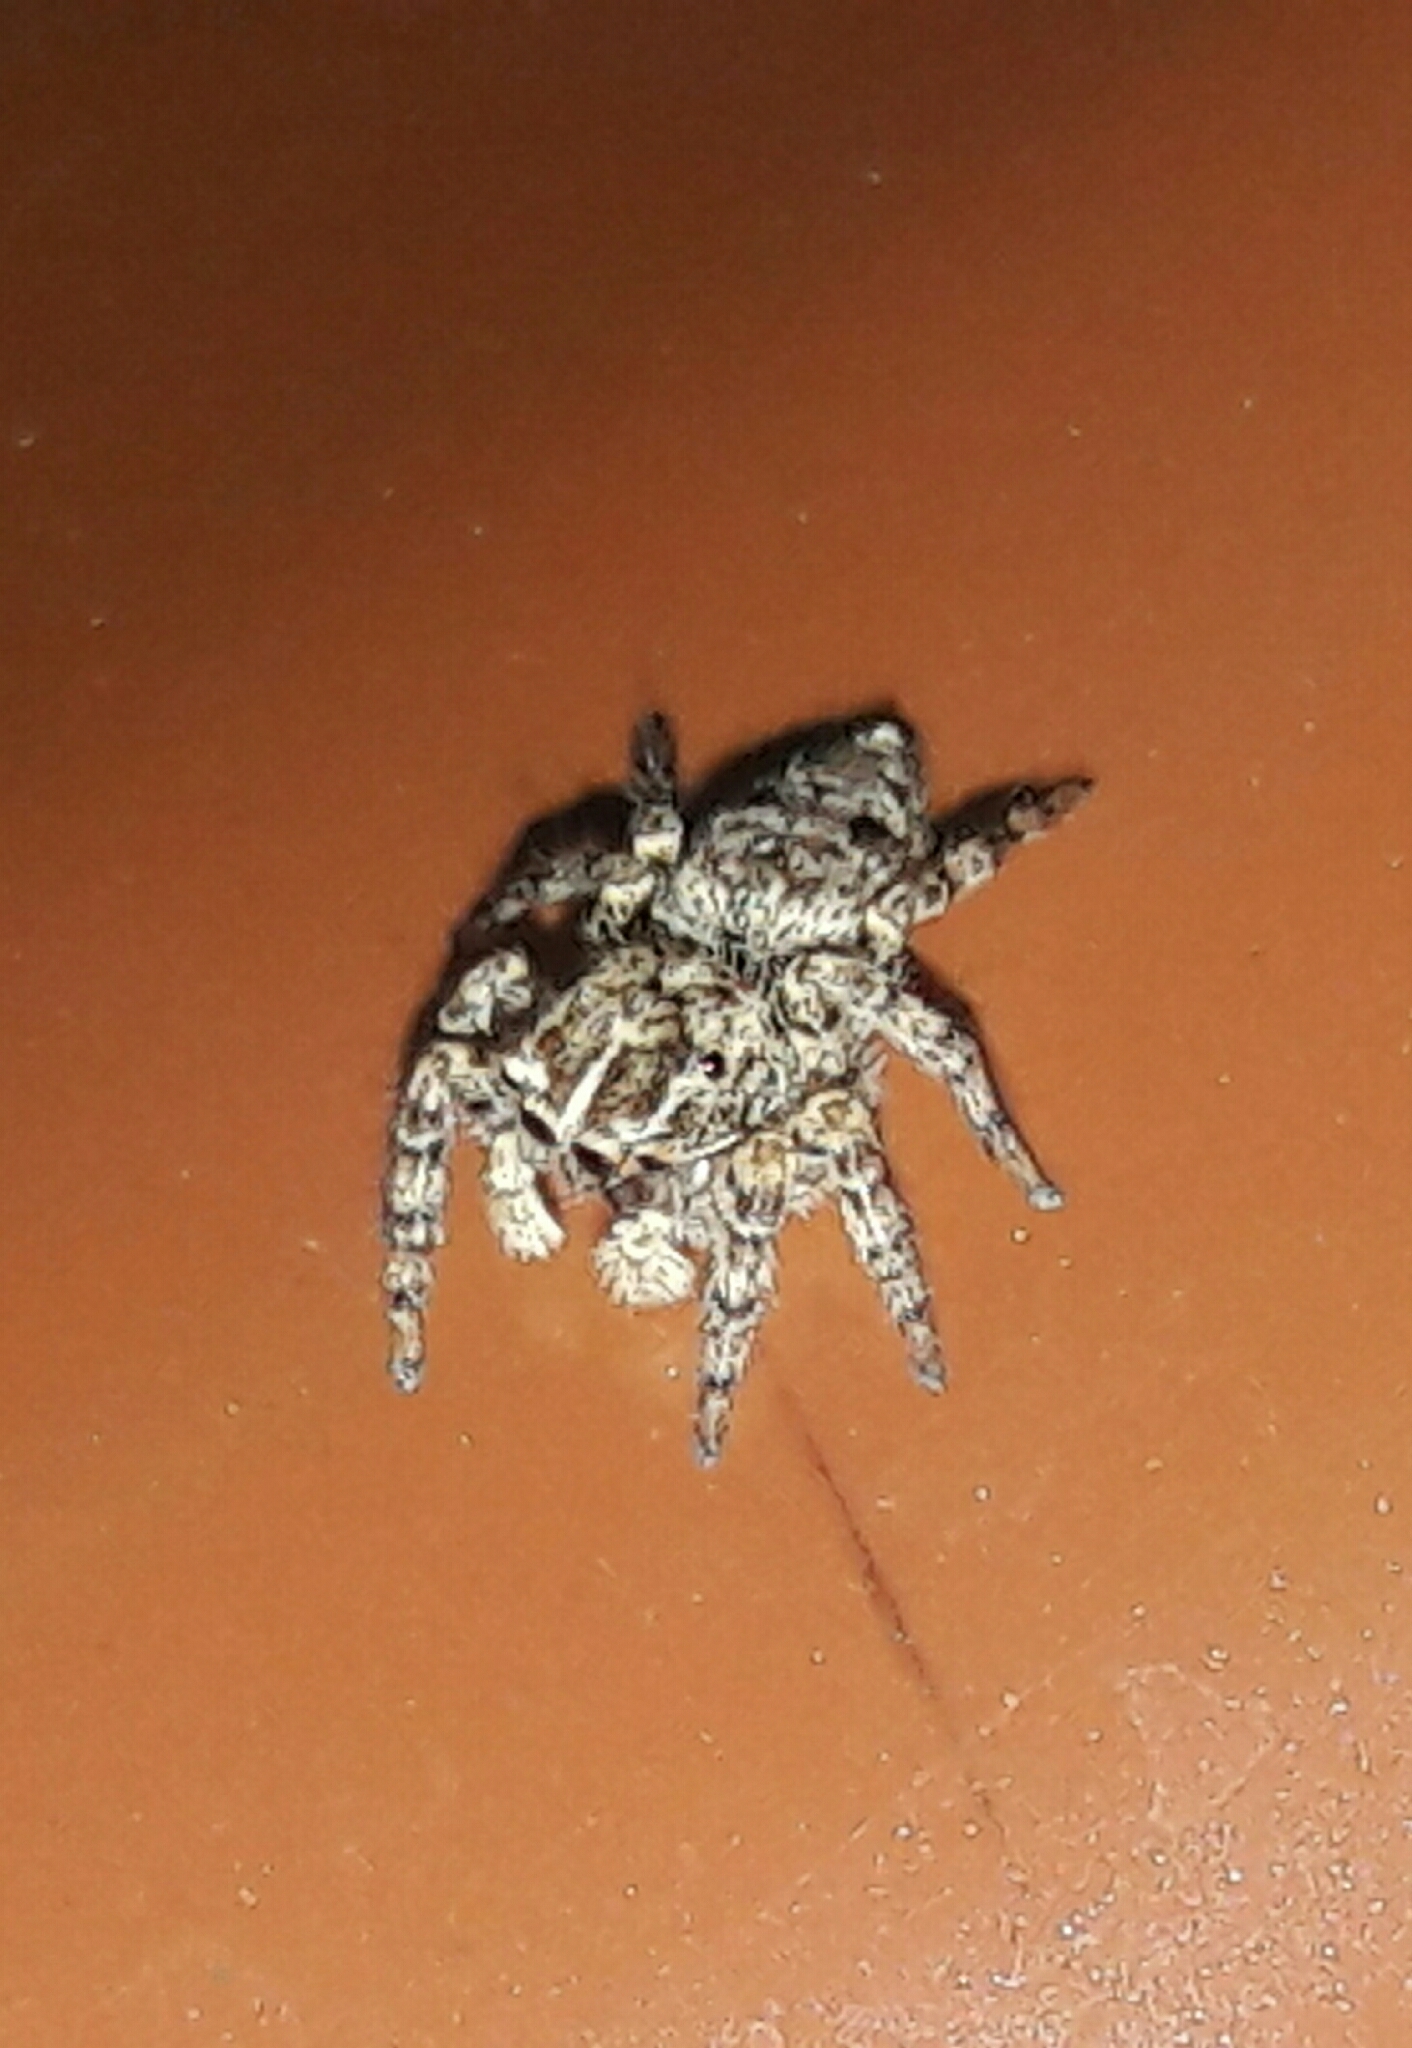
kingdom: Animalia
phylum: Arthropoda
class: Arachnida
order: Araneae
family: Salticidae
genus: Sumampattus
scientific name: Sumampattus quinqueradiatus
